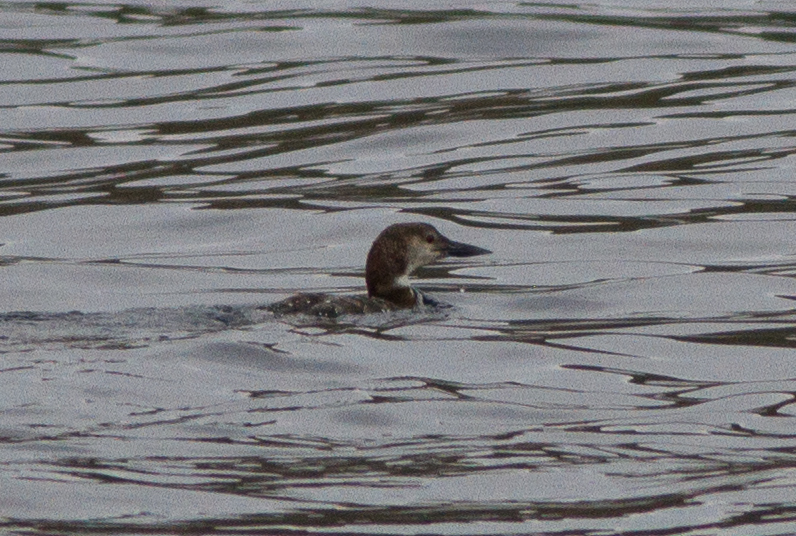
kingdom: Animalia
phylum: Chordata
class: Aves
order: Gaviiformes
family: Gaviidae
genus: Gavia
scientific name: Gavia immer
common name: Common loon
